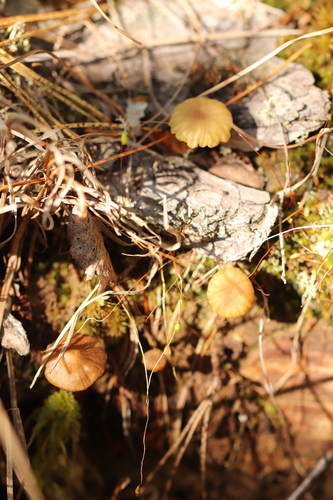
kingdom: Fungi
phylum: Basidiomycota
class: Agaricomycetes
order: Agaricales
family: Hygrophoraceae
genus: Lichenomphalia
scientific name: Lichenomphalia umbellifera
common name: Heath navel
